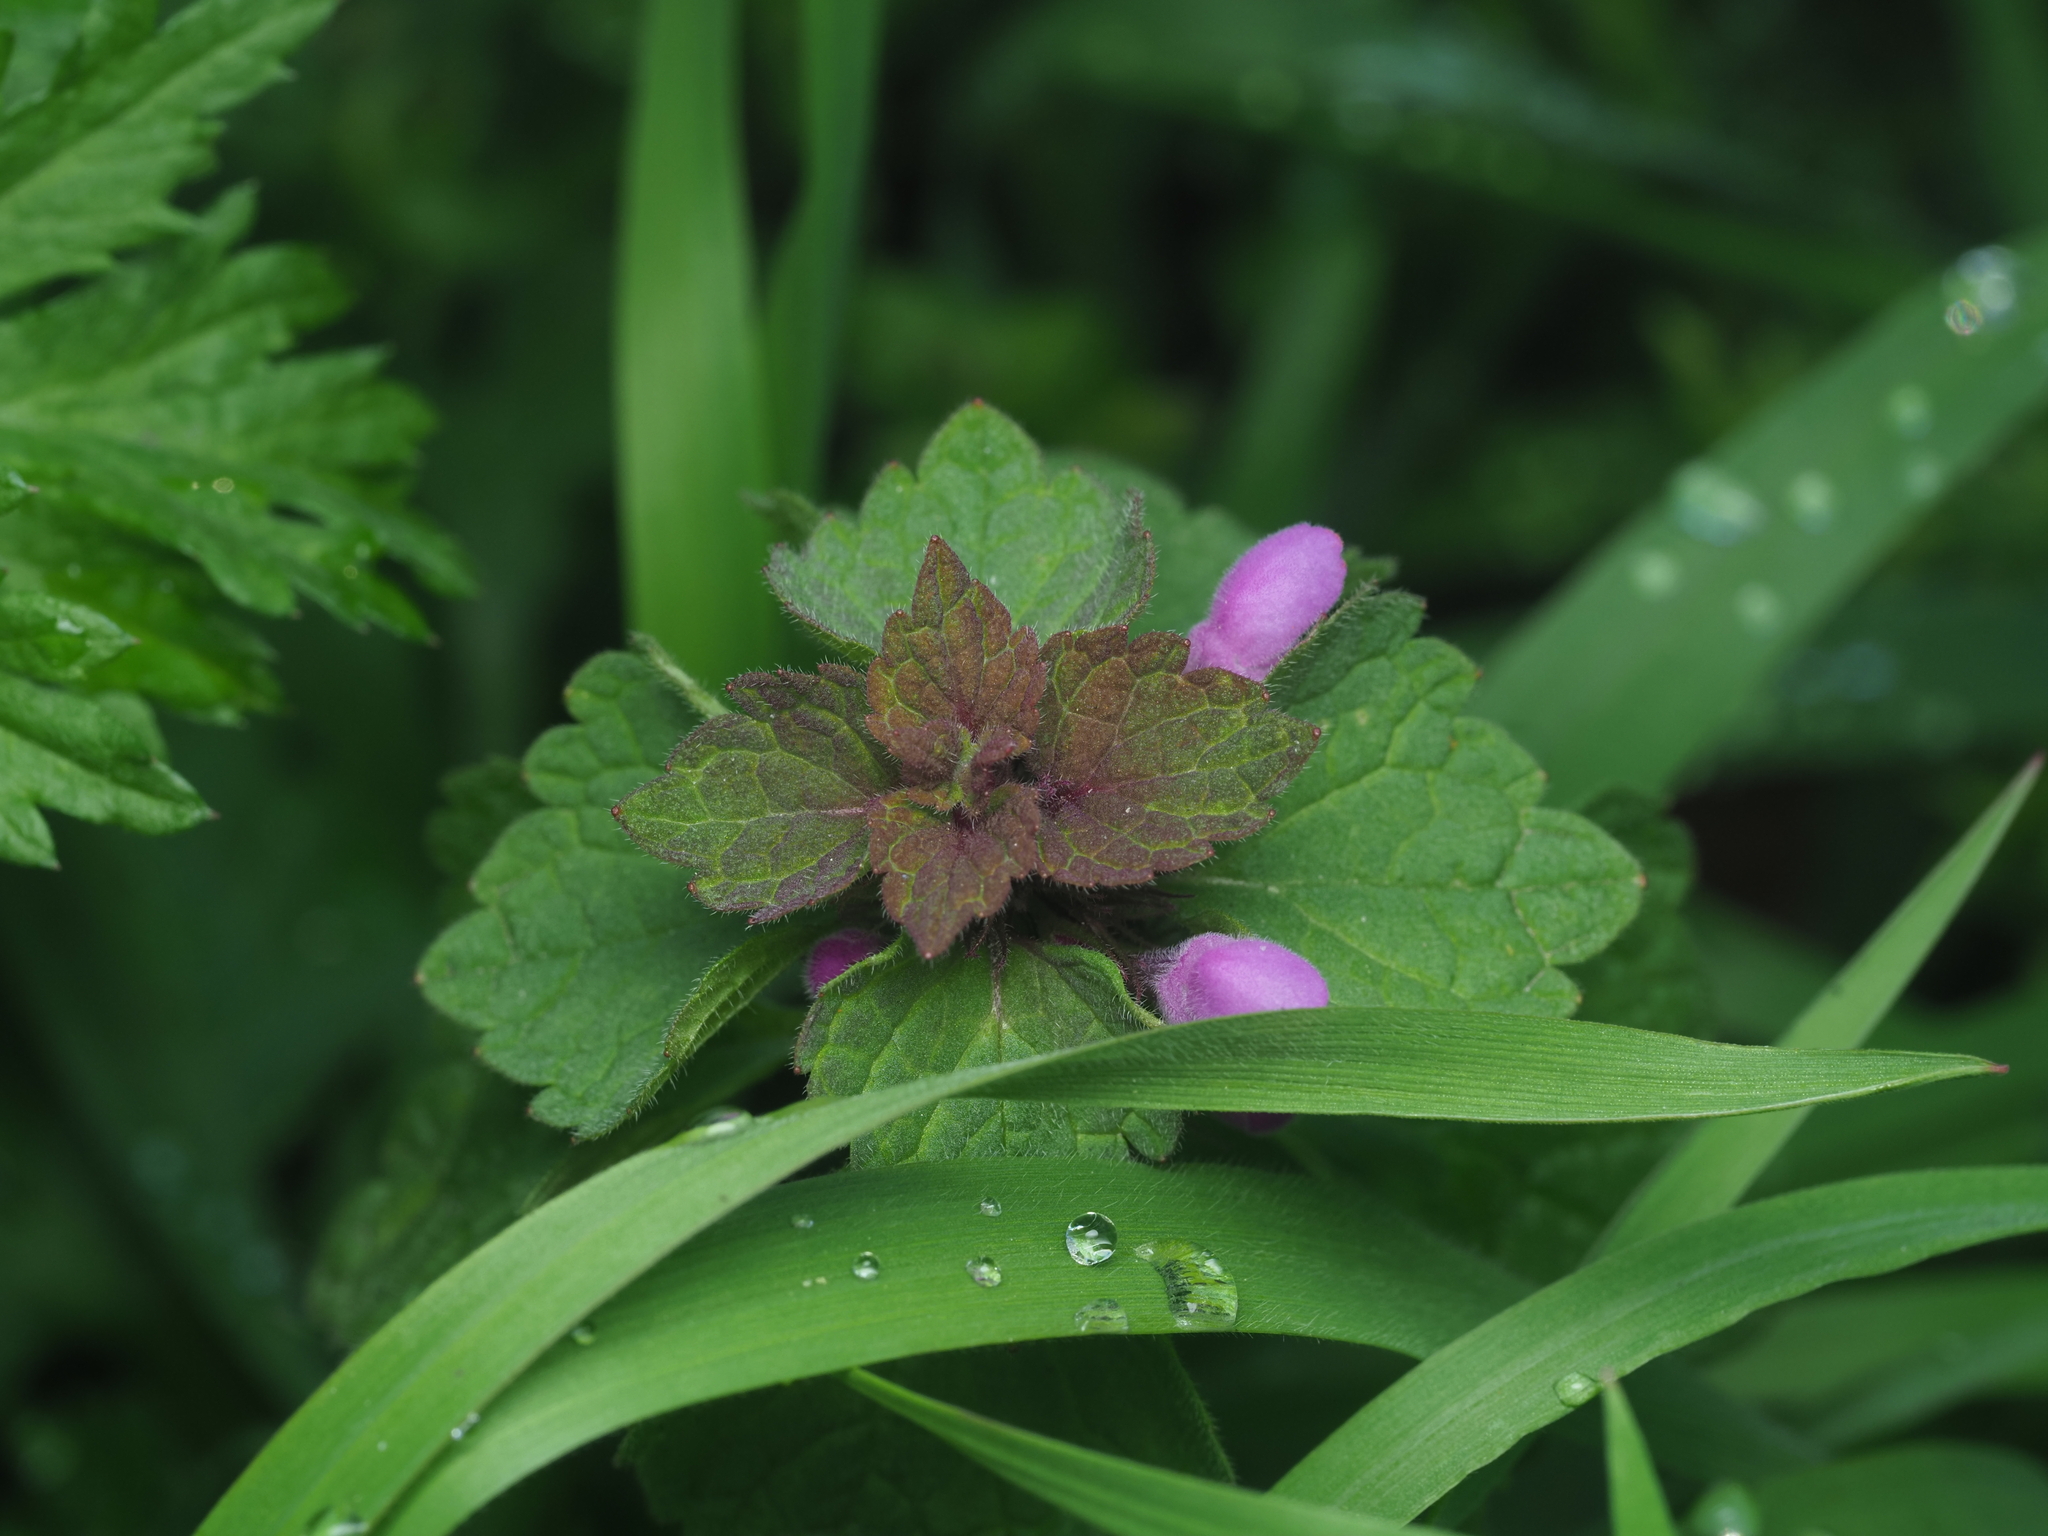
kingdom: Plantae
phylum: Tracheophyta
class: Magnoliopsida
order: Lamiales
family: Lamiaceae
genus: Lamium
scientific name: Lamium purpureum
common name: Red dead-nettle
